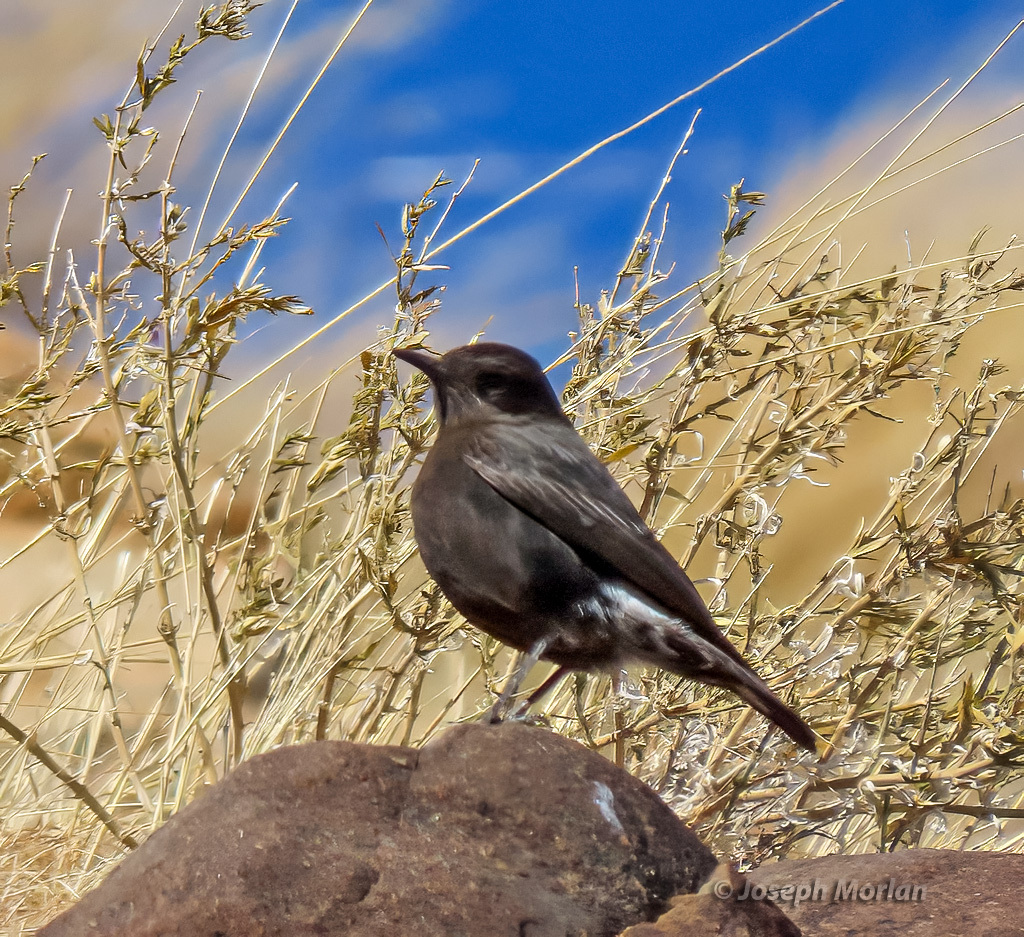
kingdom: Animalia
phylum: Chordata
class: Aves
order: Passeriformes
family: Muscicapidae
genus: Oenanthe
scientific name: Oenanthe monticola
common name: Mountain wheatear
